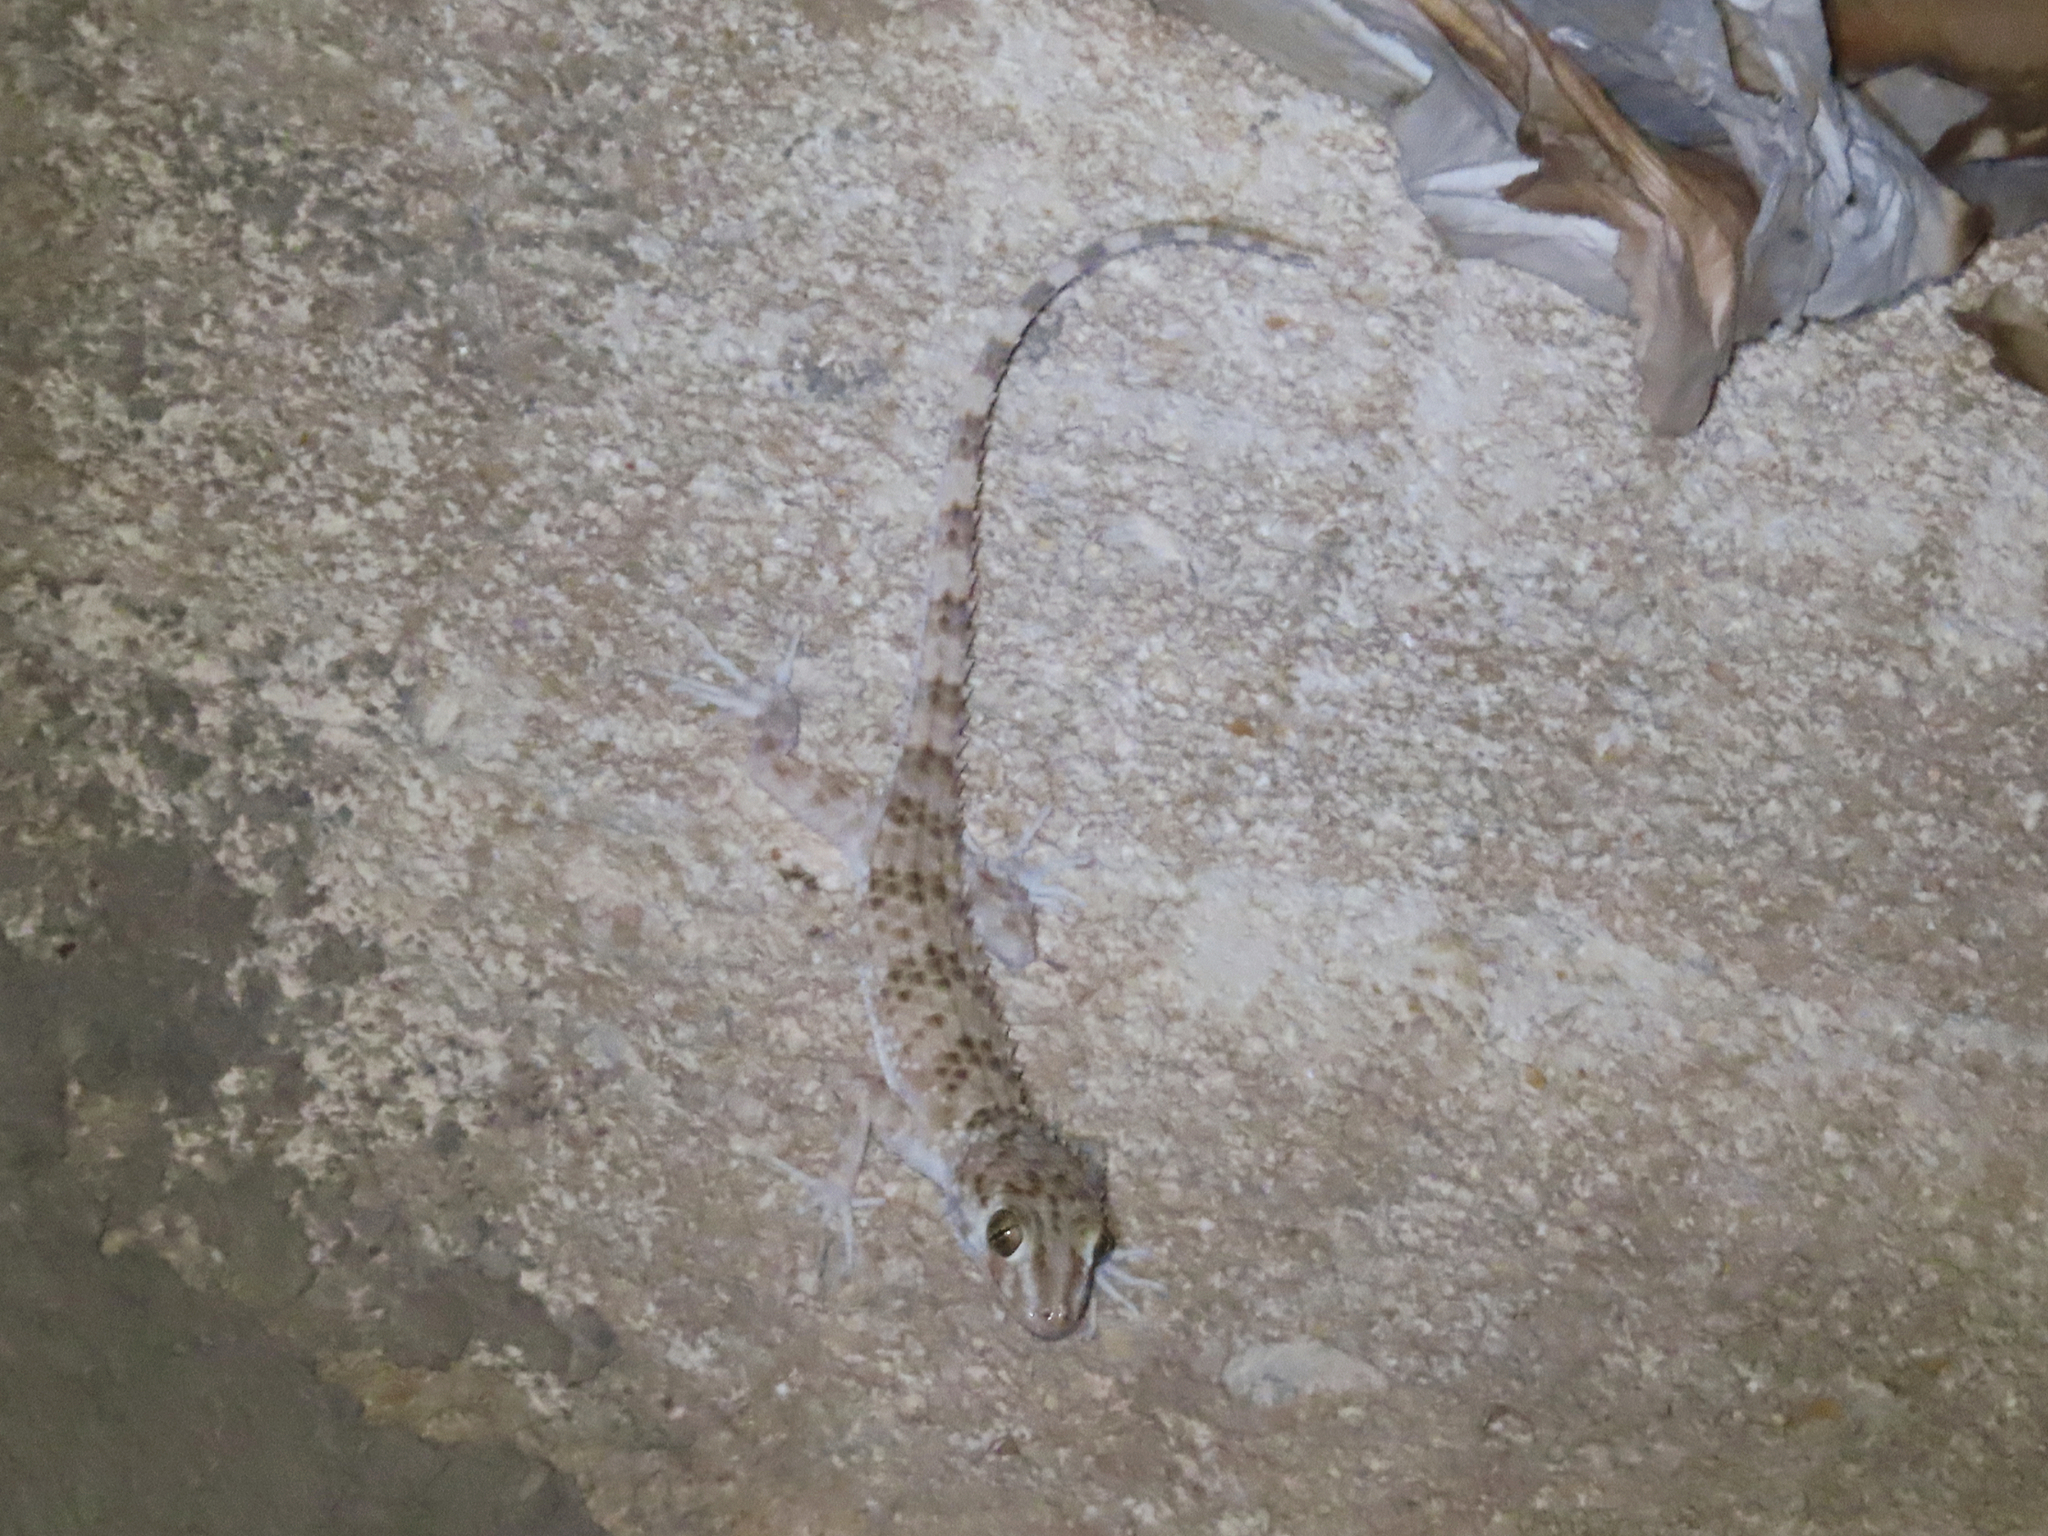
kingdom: Animalia
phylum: Chordata
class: Squamata
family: Gekkonidae
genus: Tenuidactylus
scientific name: Tenuidactylus caspius
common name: Caspian bent-toed gecko
